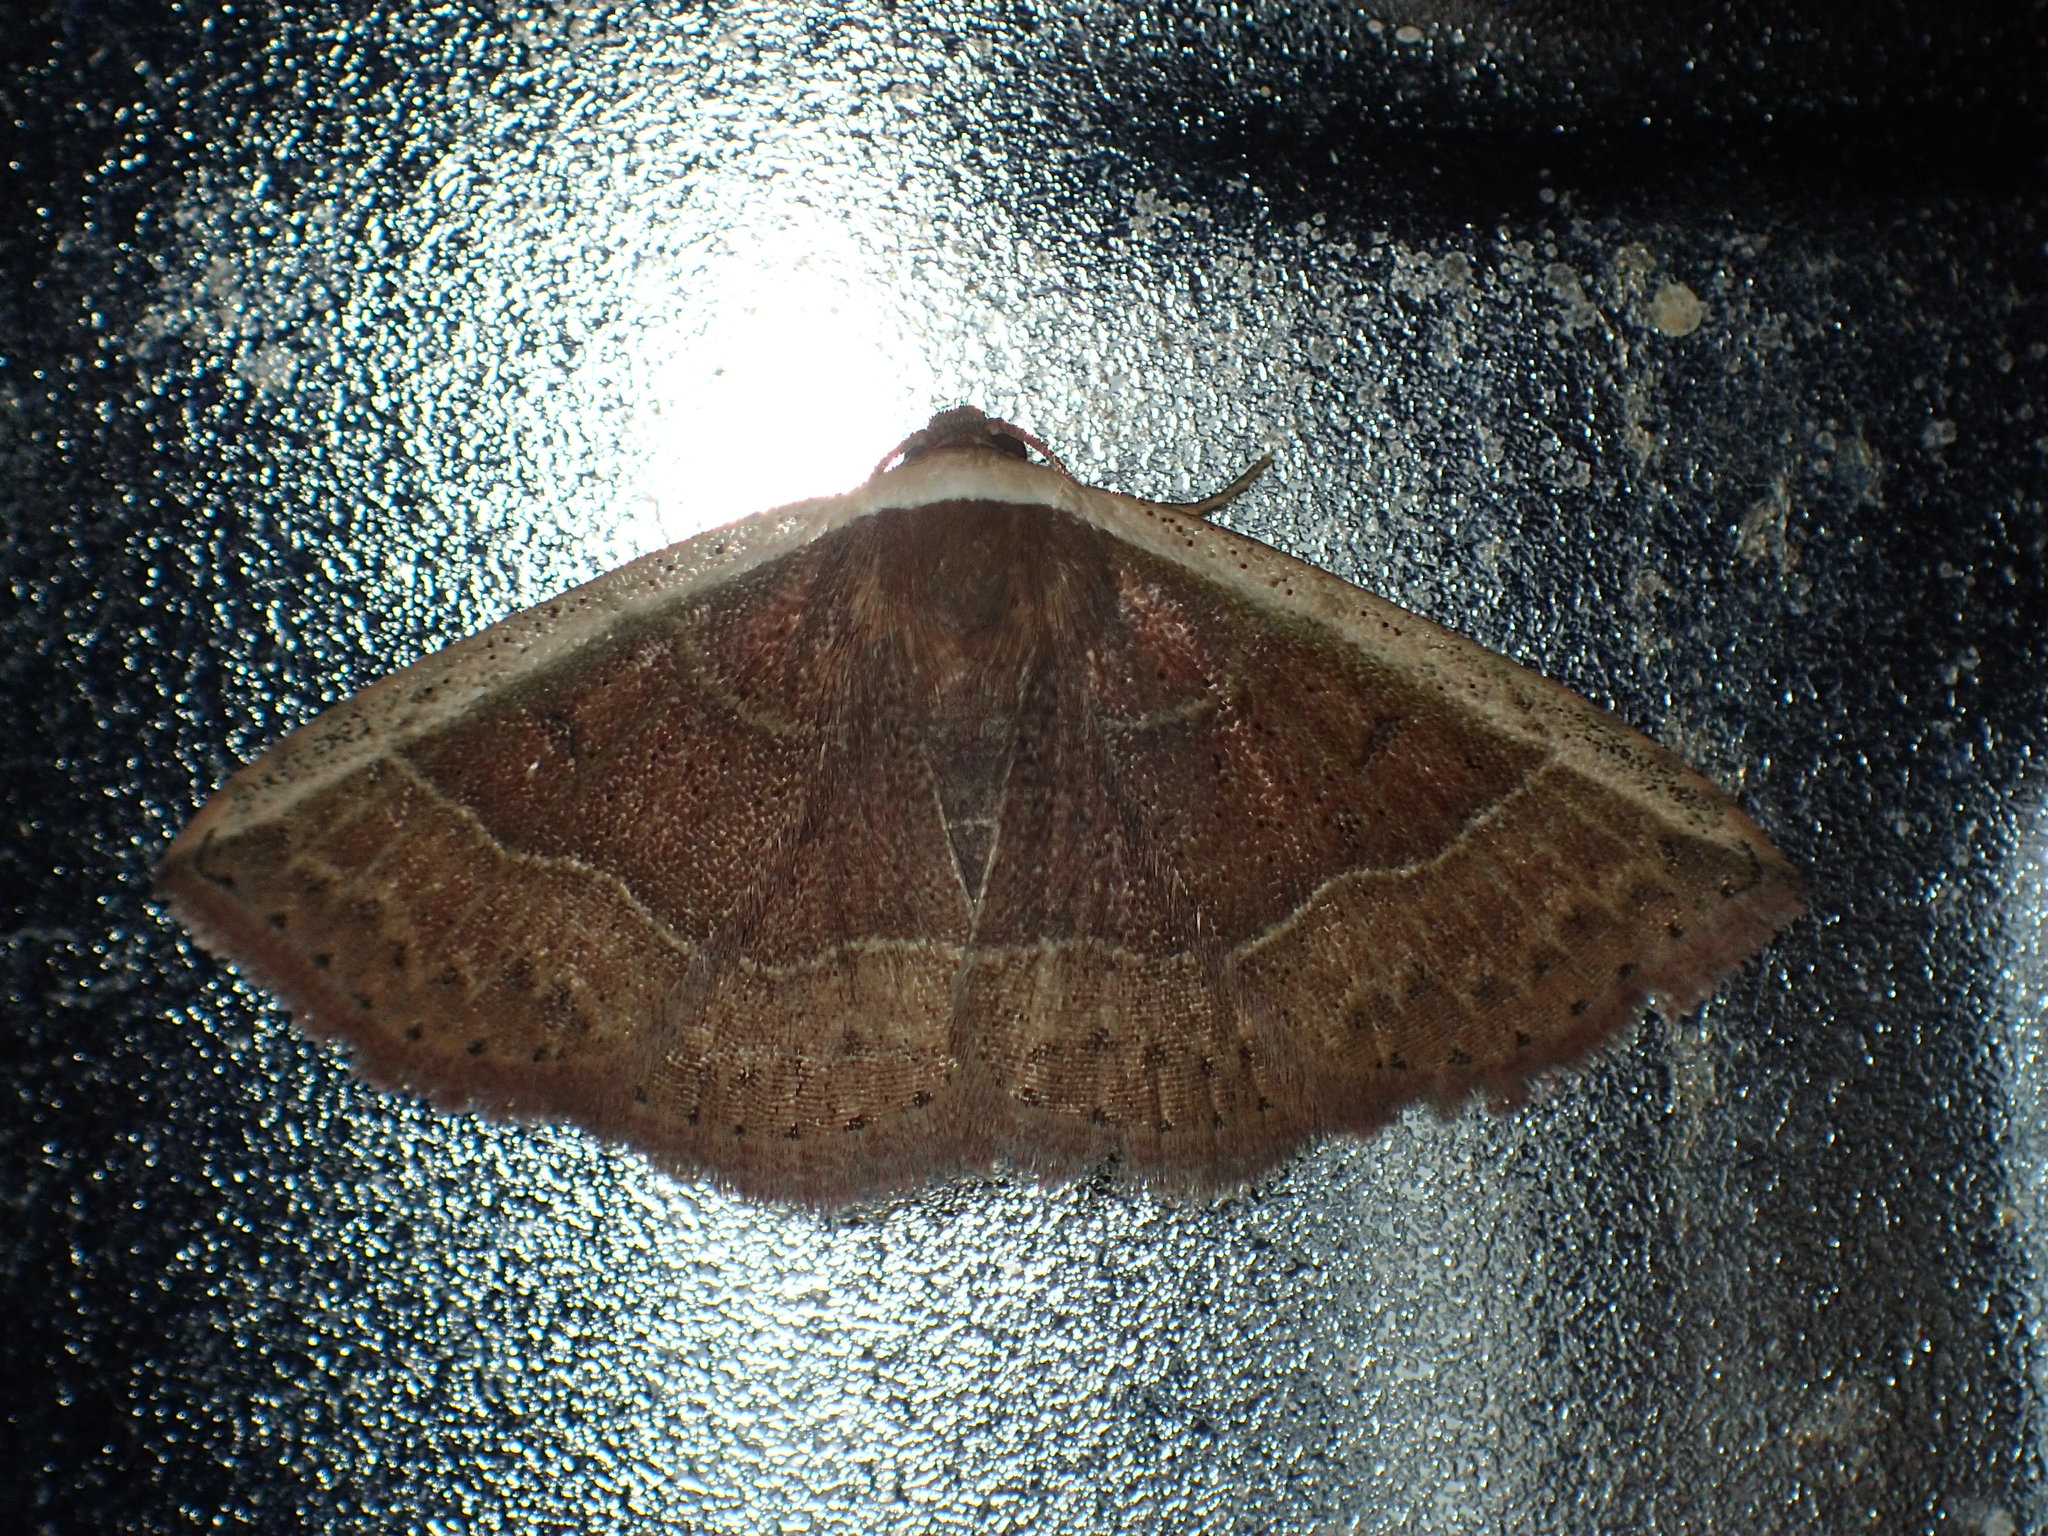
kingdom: Animalia
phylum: Arthropoda
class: Insecta
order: Lepidoptera
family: Noctuidae
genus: Ozarba
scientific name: Ozarba albocostaliata
